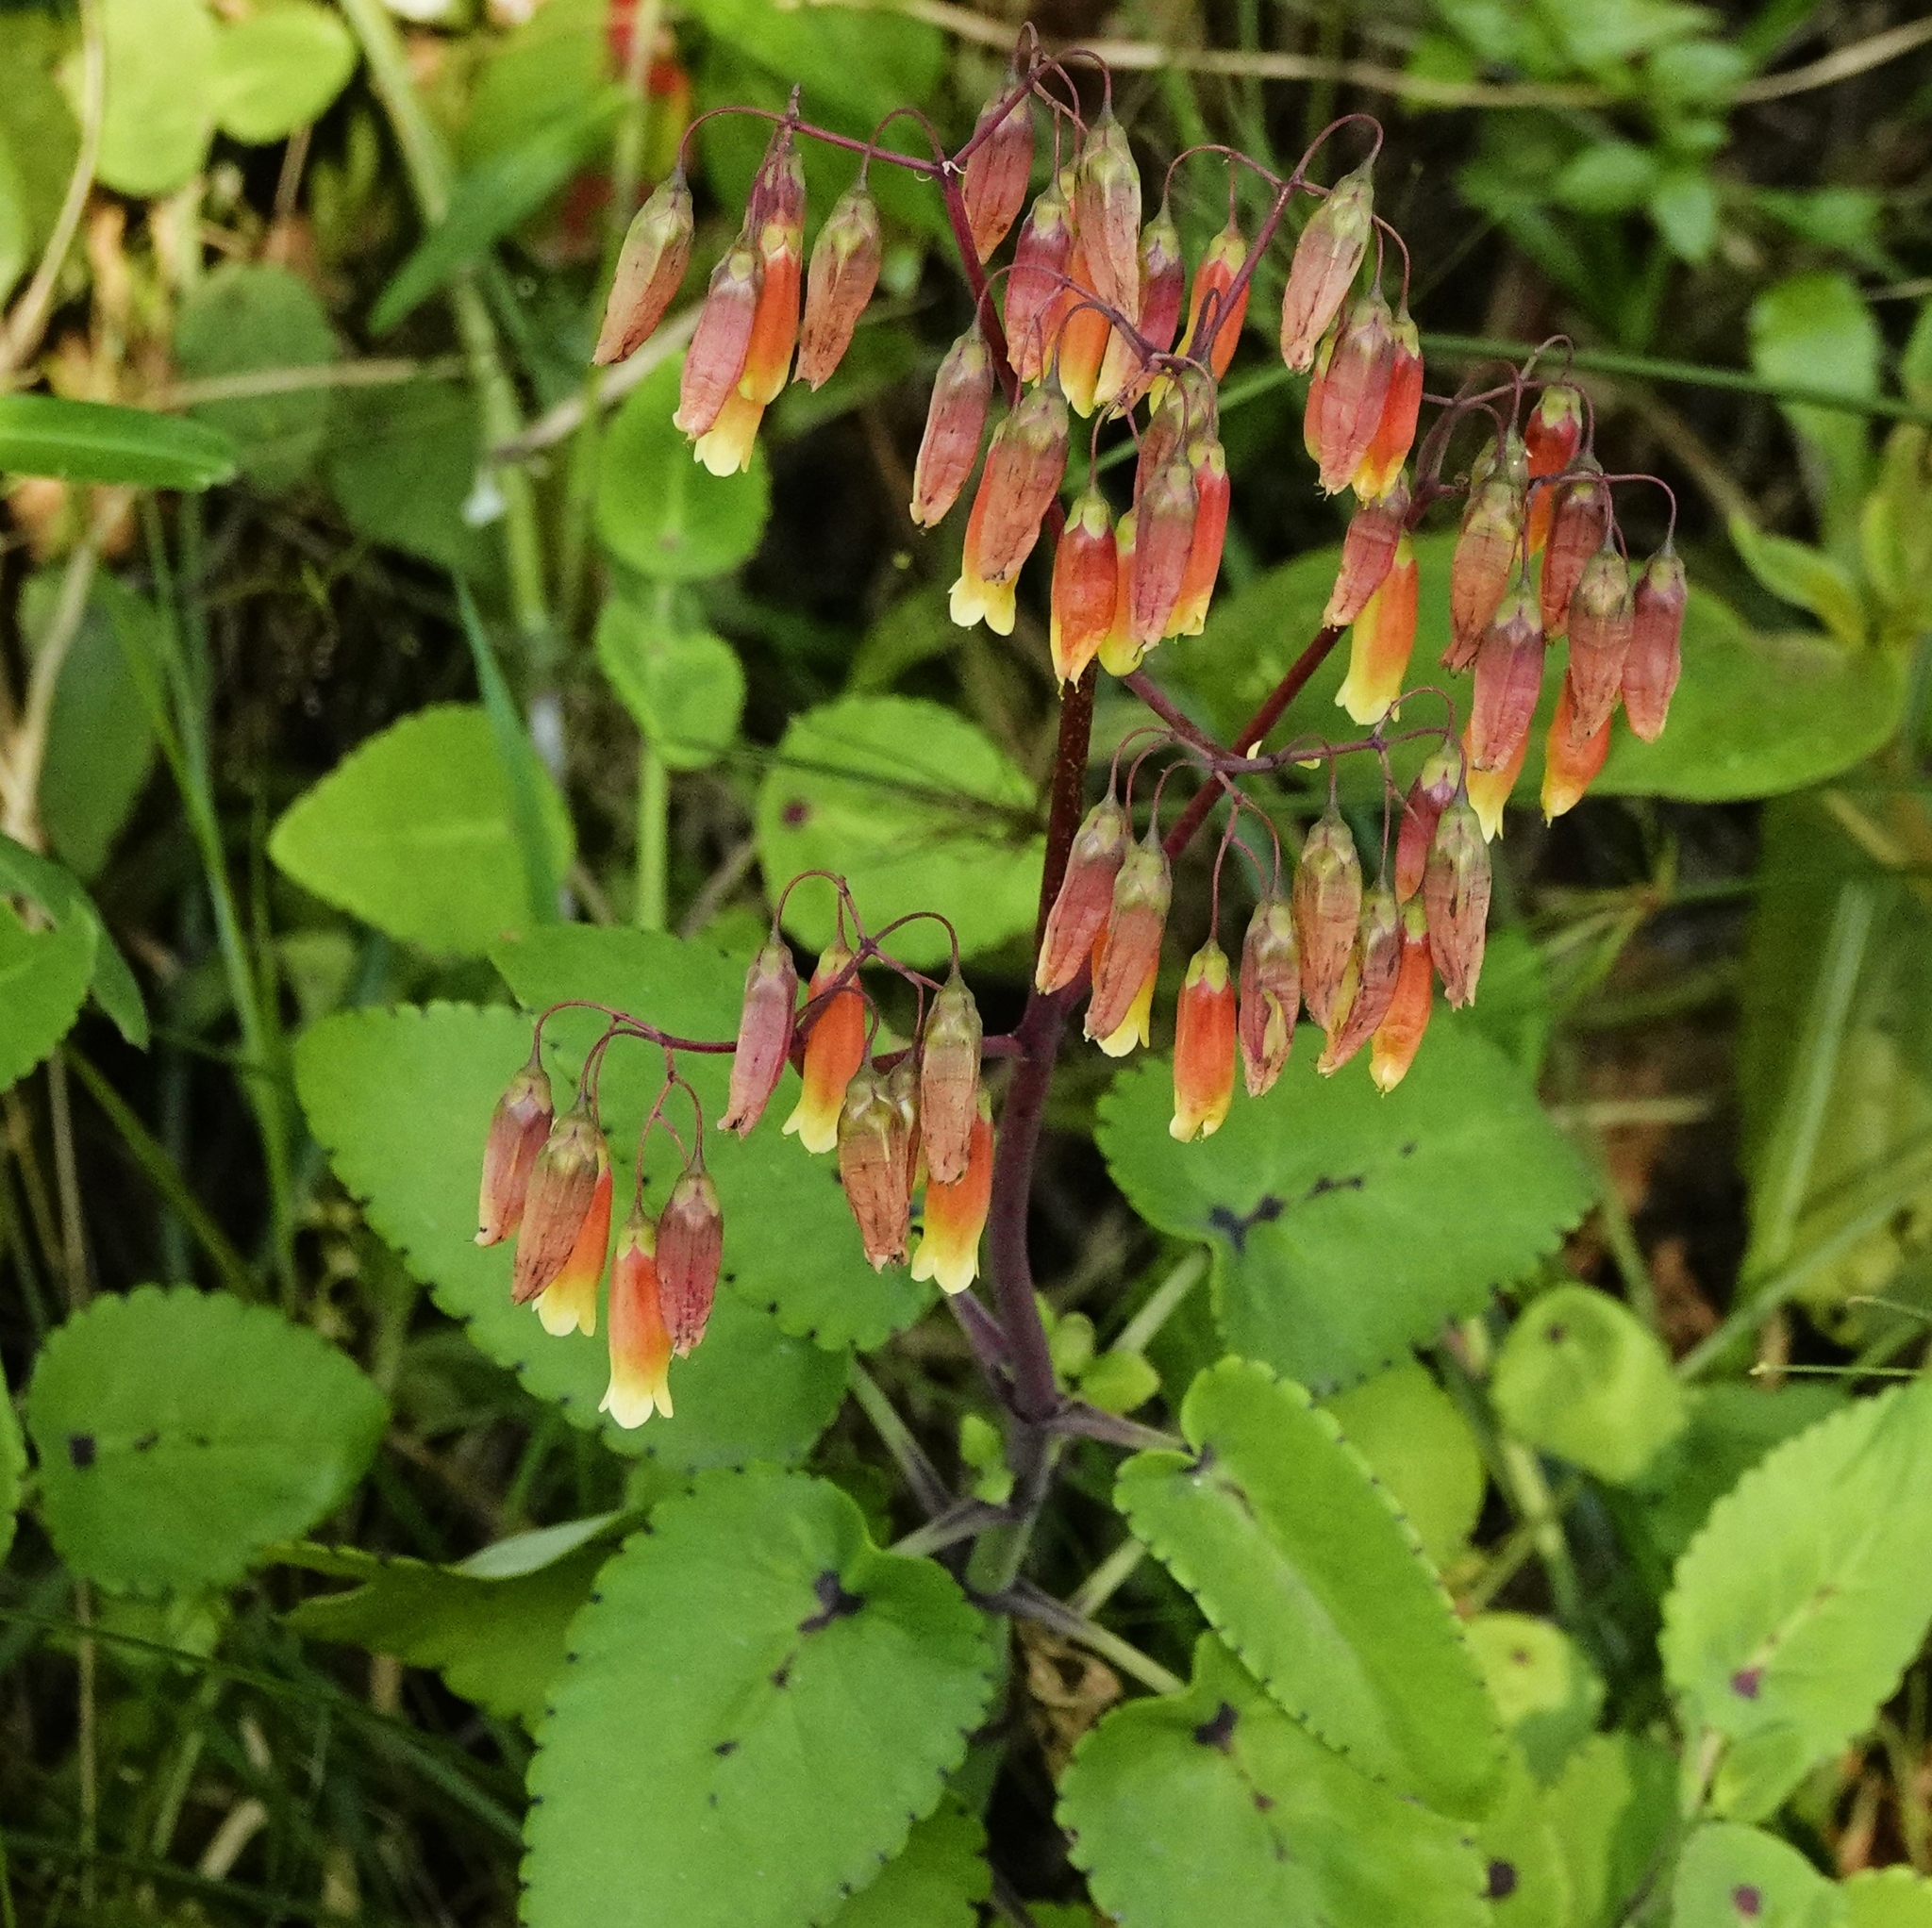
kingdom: Plantae
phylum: Tracheophyta
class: Magnoliopsida
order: Saxifragales
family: Crassulaceae
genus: Kalanchoe
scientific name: Kalanchoe peltata
